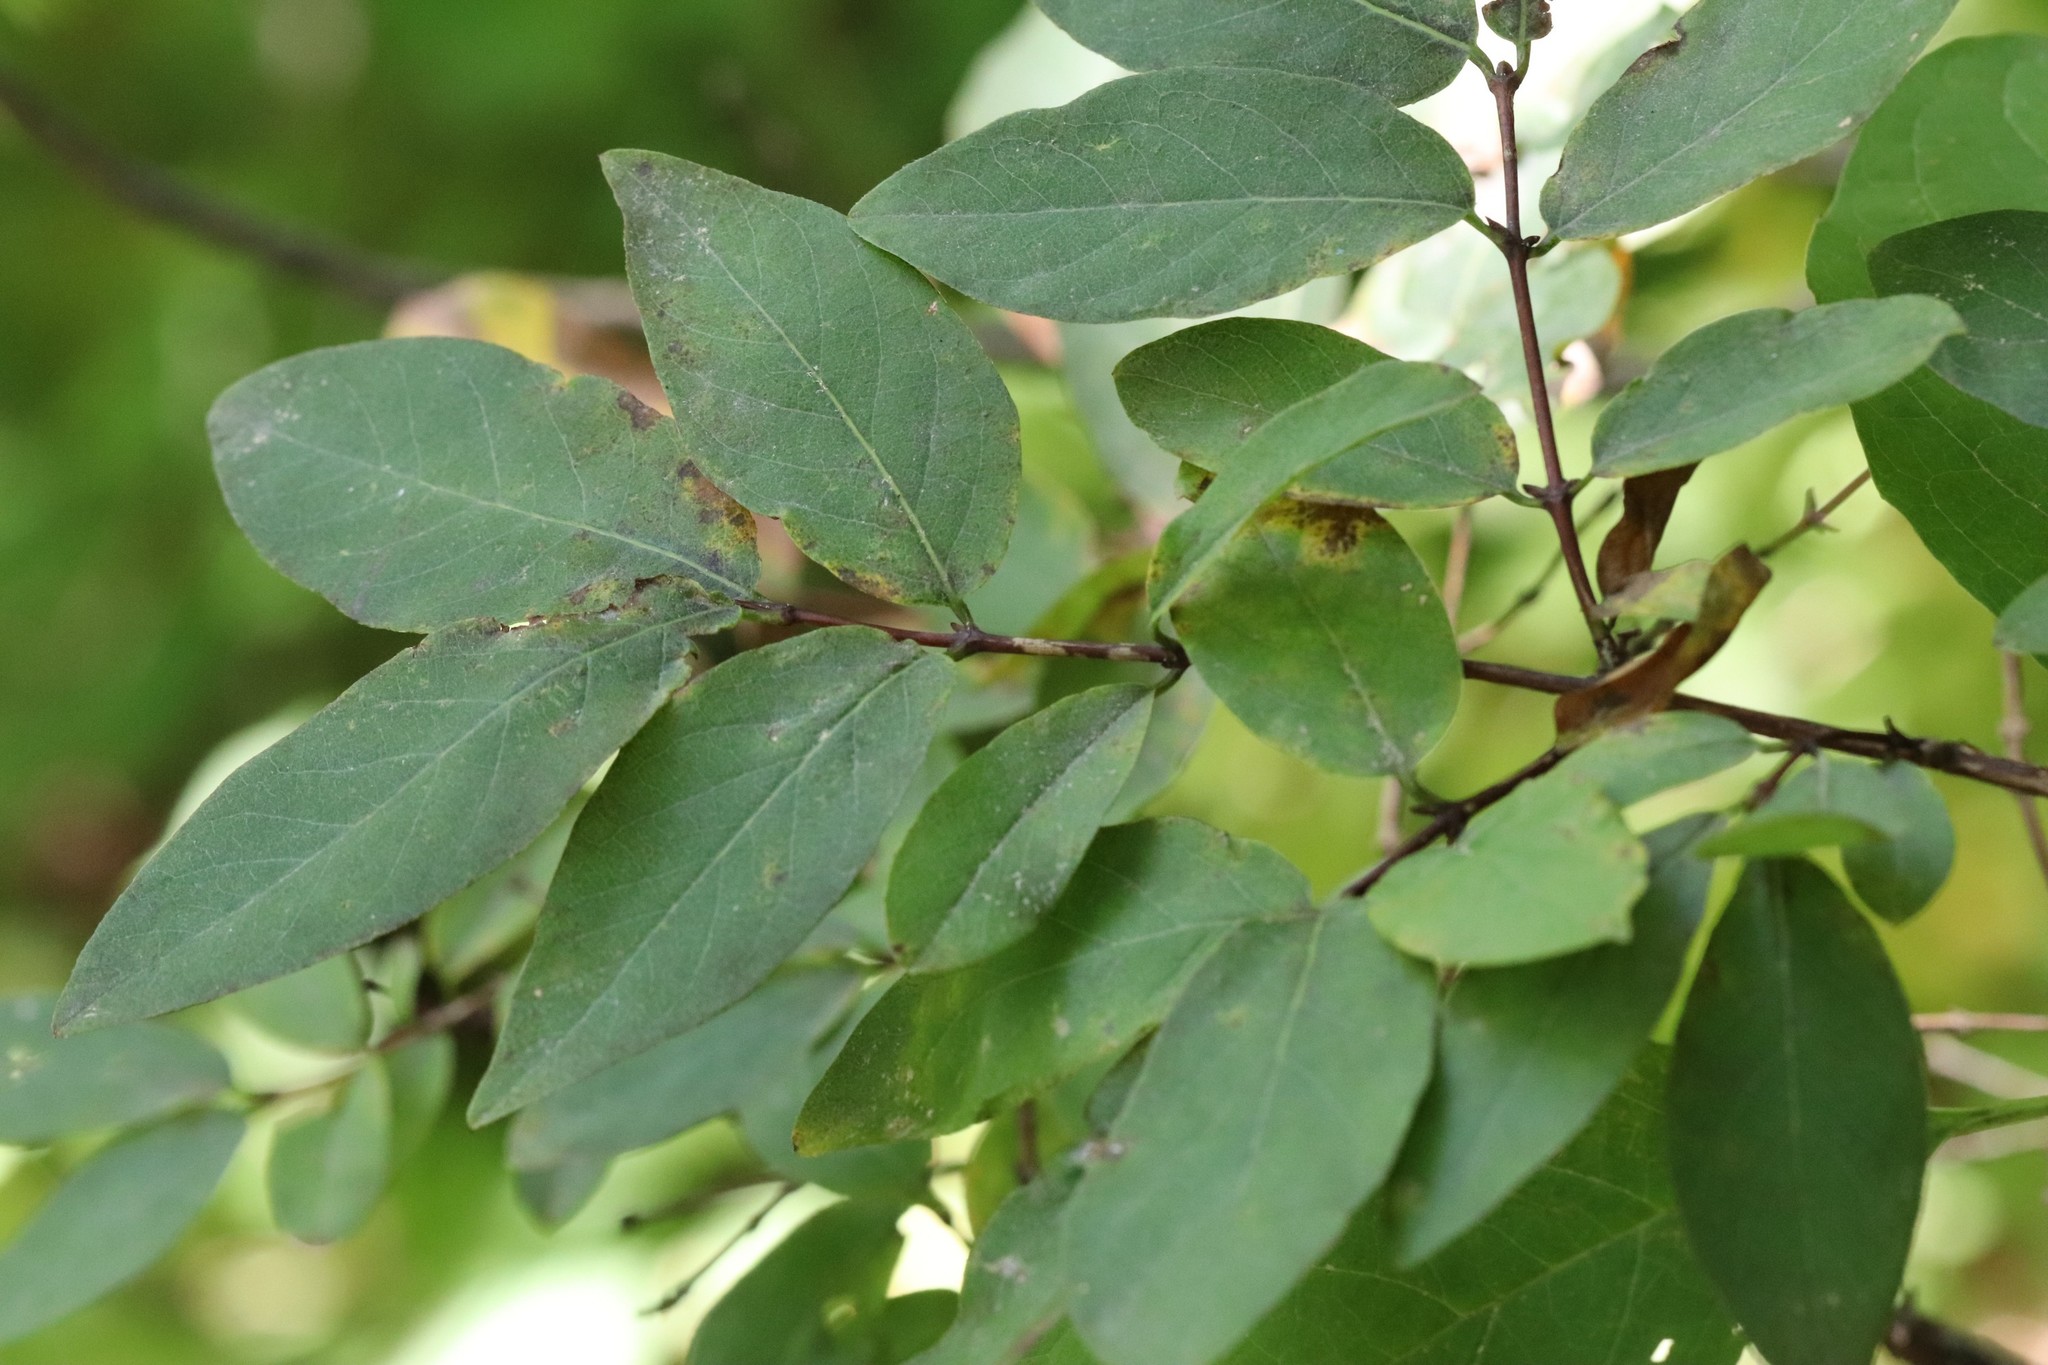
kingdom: Plantae
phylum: Tracheophyta
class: Magnoliopsida
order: Dipsacales
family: Caprifoliaceae
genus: Lonicera
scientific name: Lonicera caerulea
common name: Blue honeysuckle
